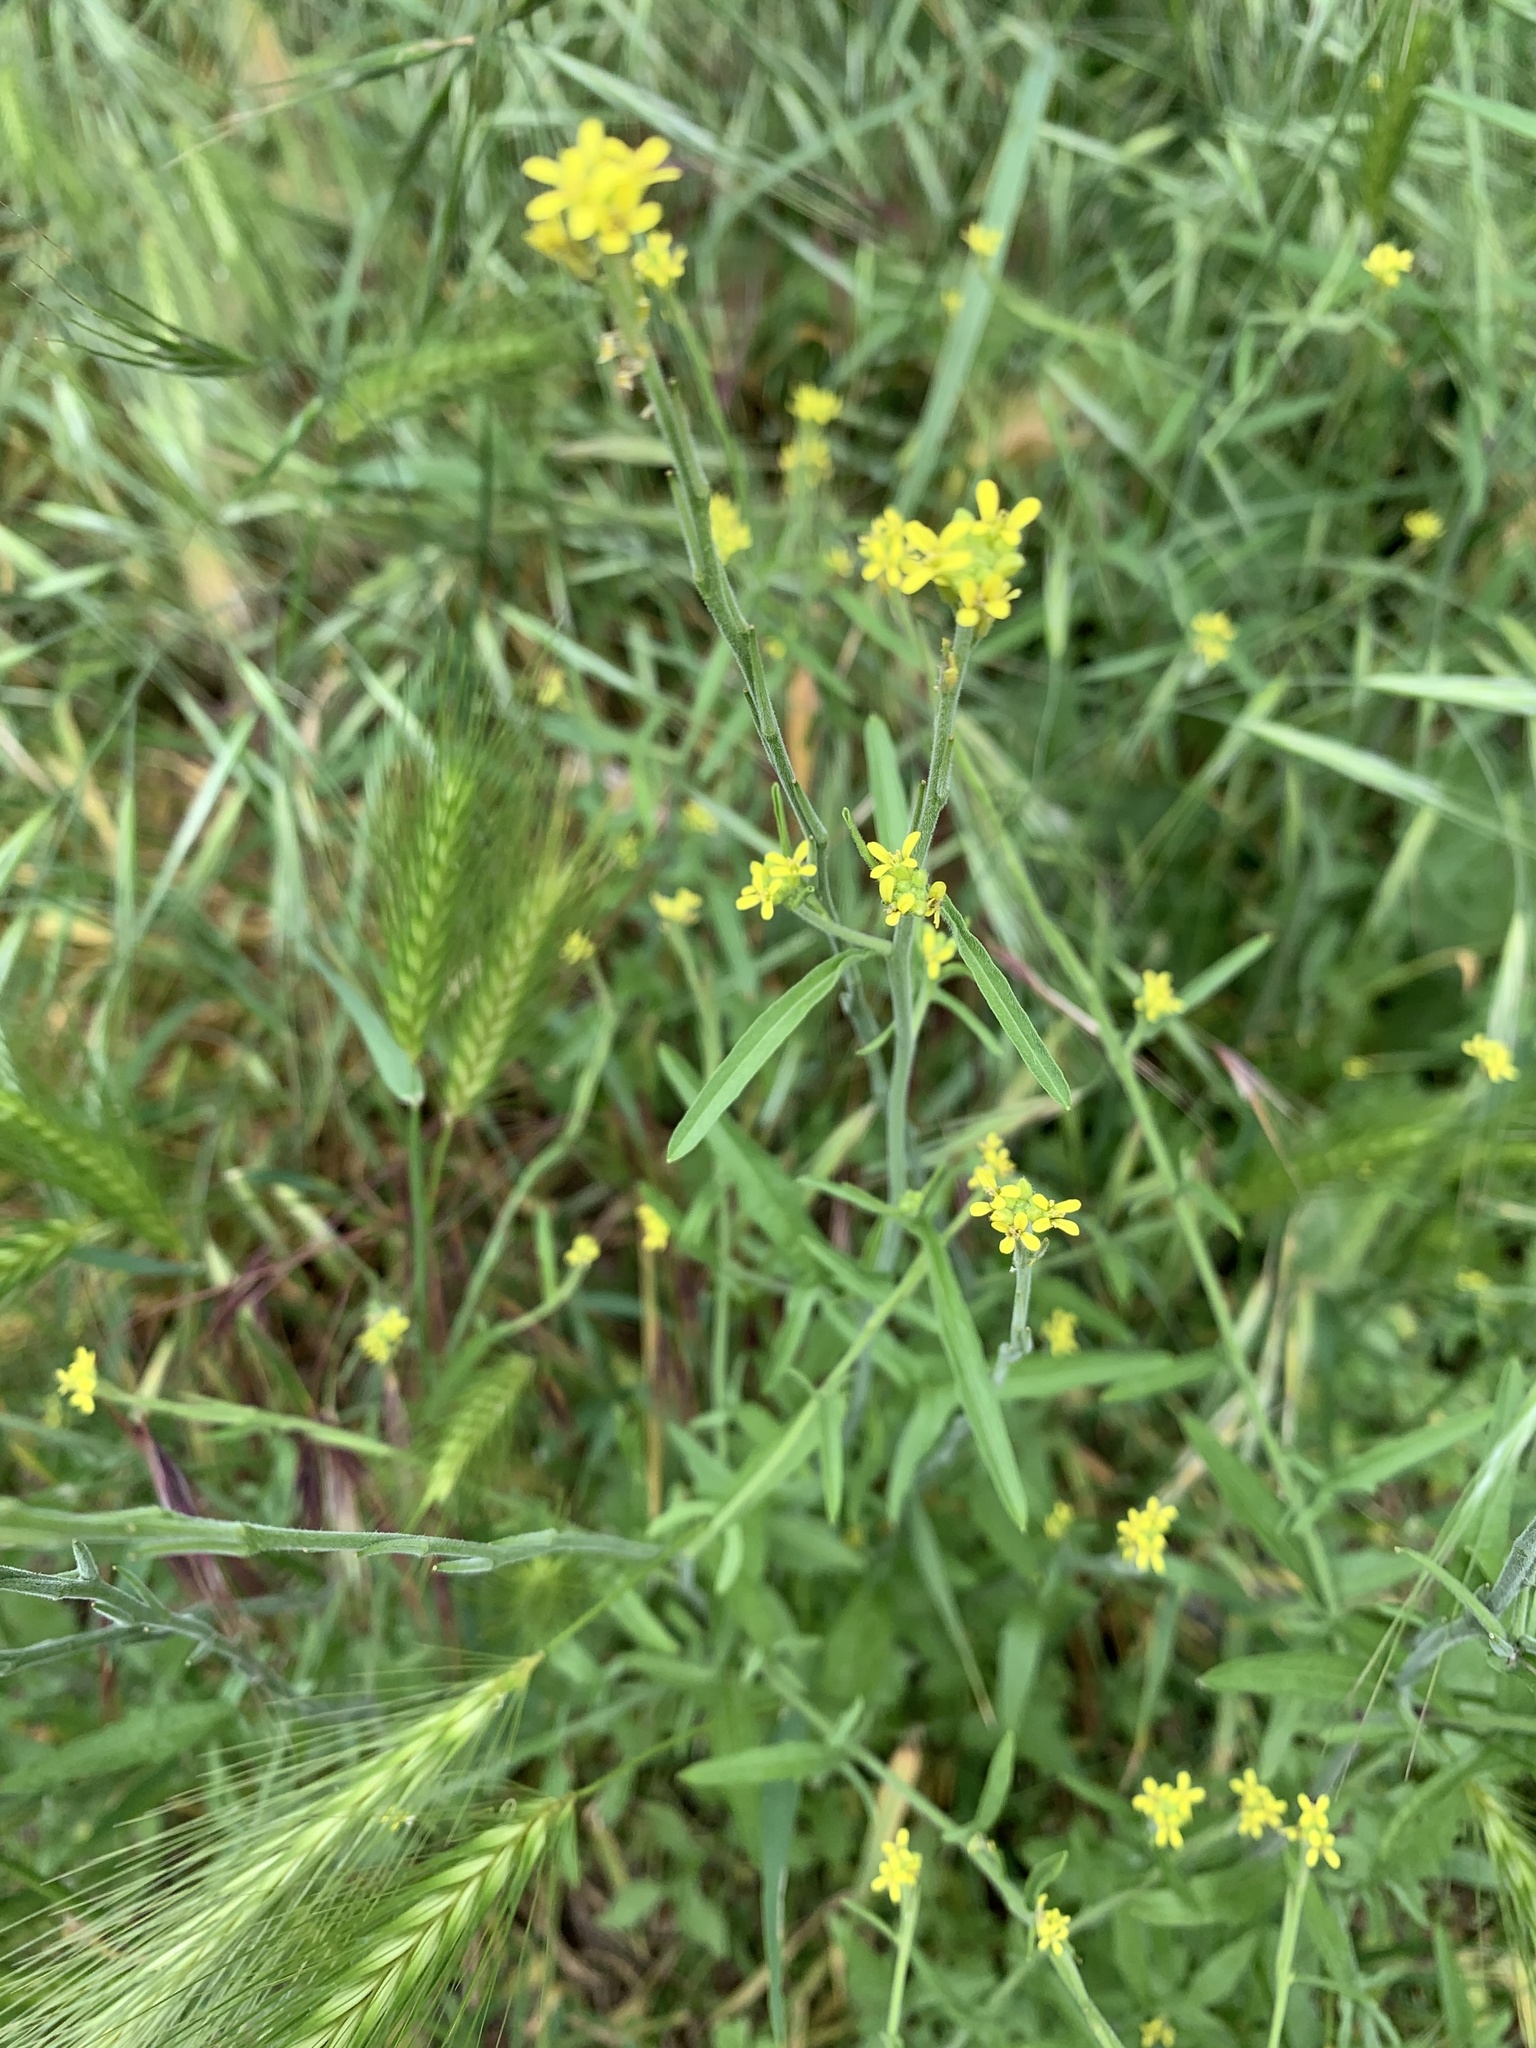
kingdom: Plantae
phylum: Tracheophyta
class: Magnoliopsida
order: Brassicales
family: Brassicaceae
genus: Sisymbrium
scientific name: Sisymbrium officinale
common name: Hedge mustard
